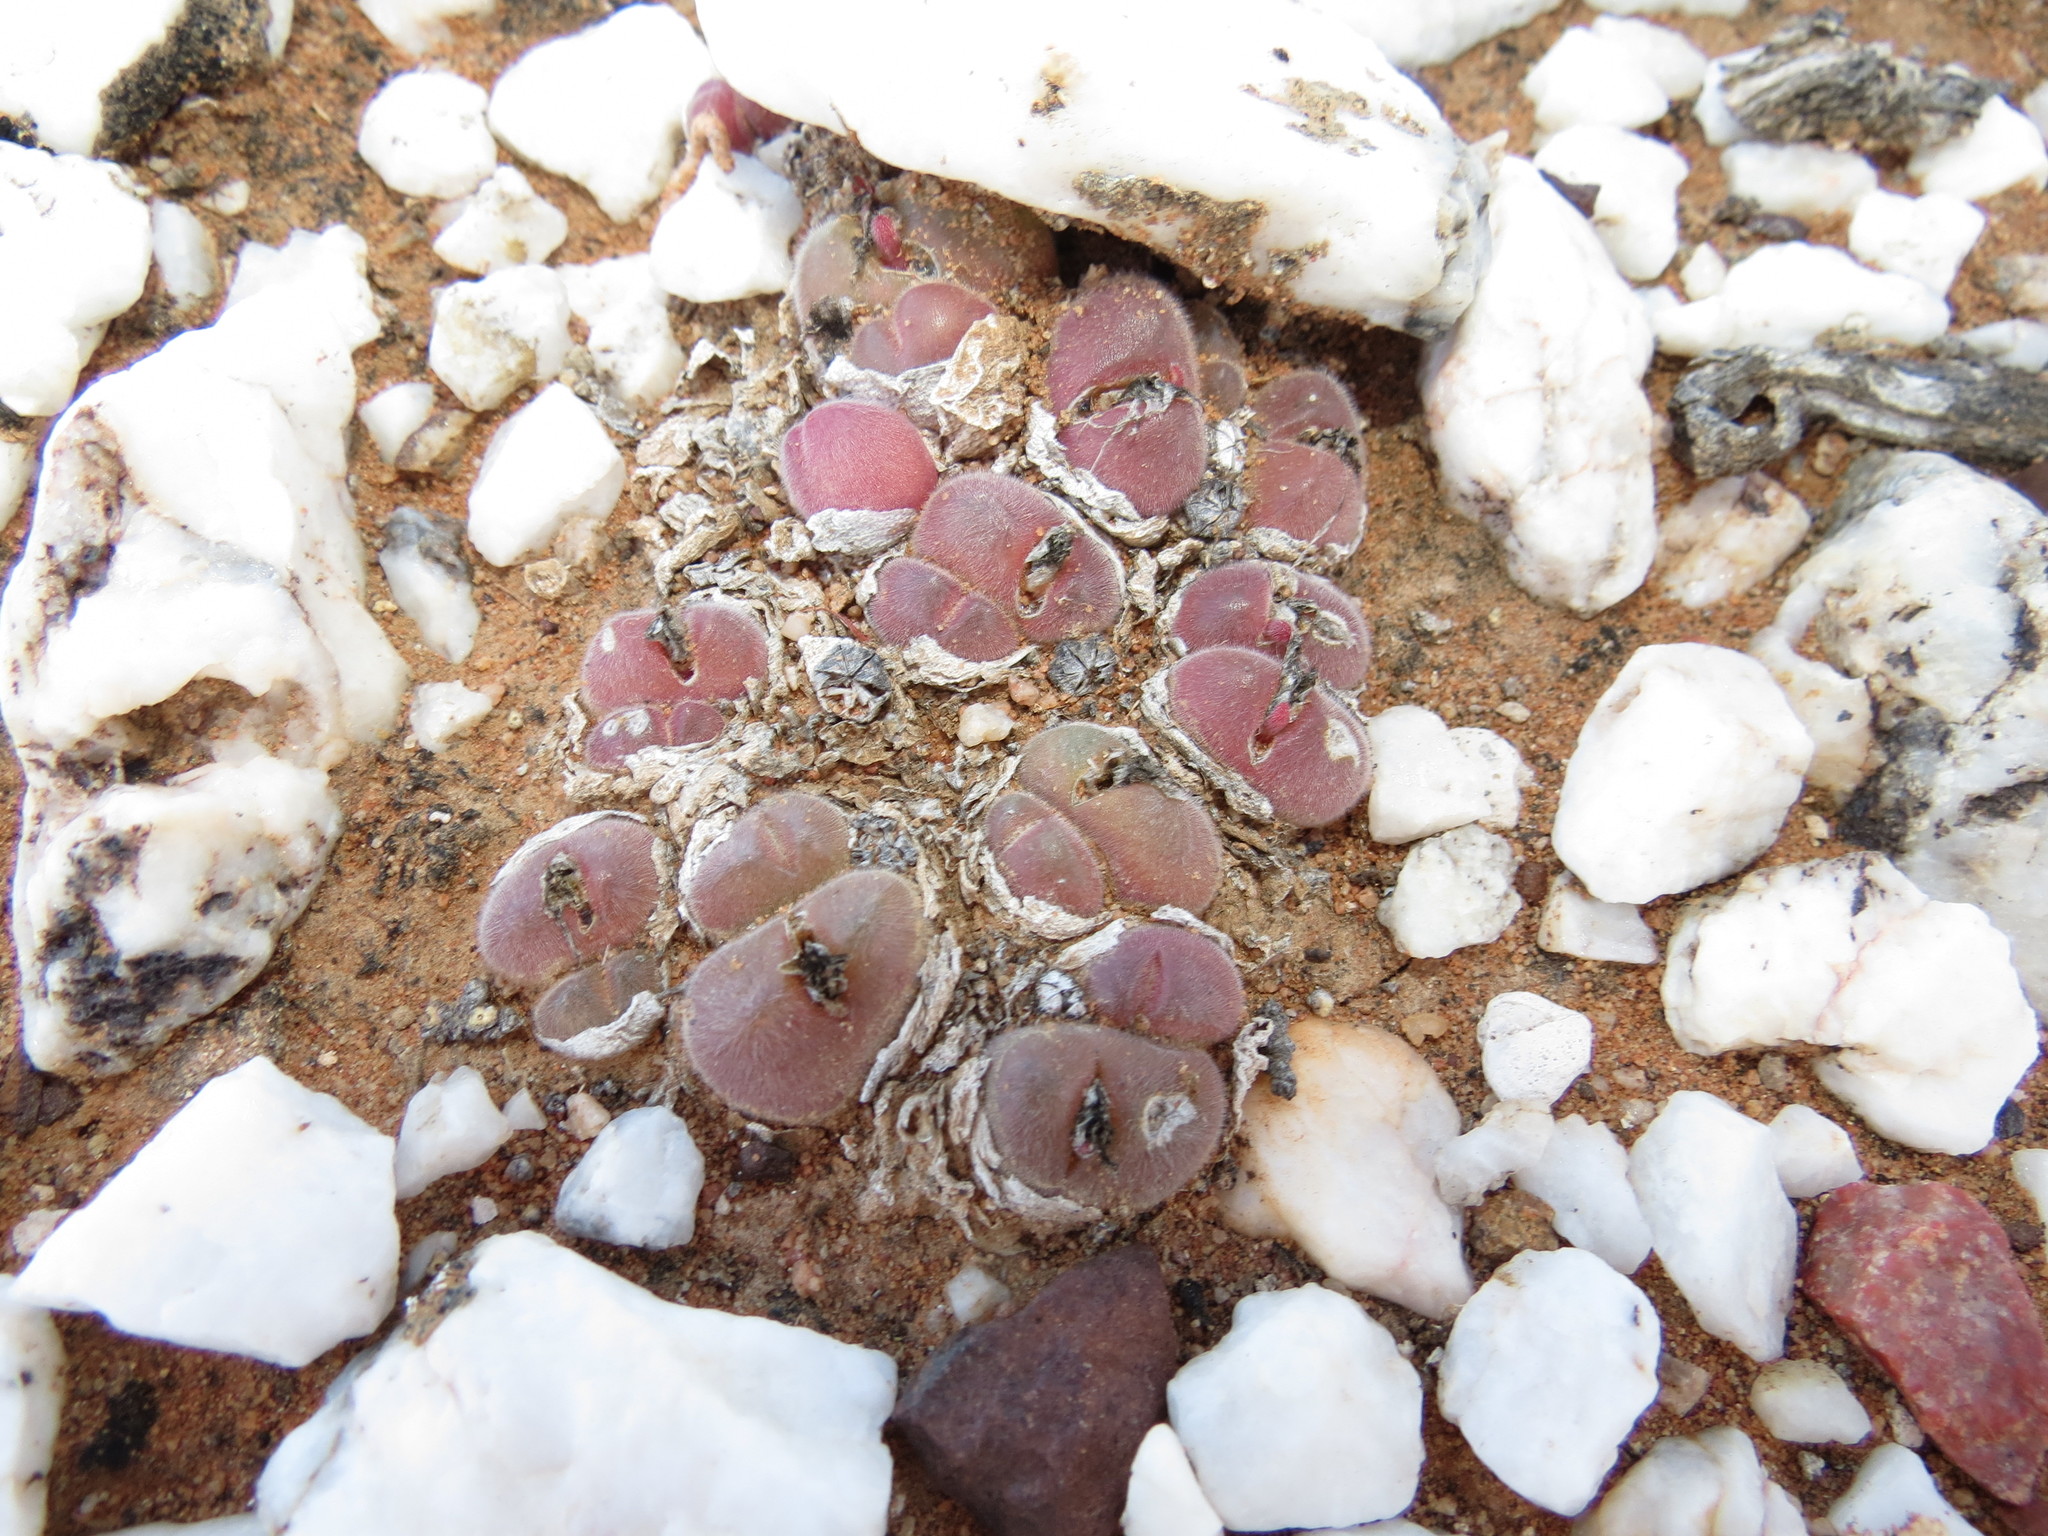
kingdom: Plantae
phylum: Tracheophyta
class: Magnoliopsida
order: Caryophyllales
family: Aizoaceae
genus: Gibbaeum
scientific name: Gibbaeum pilosulum
